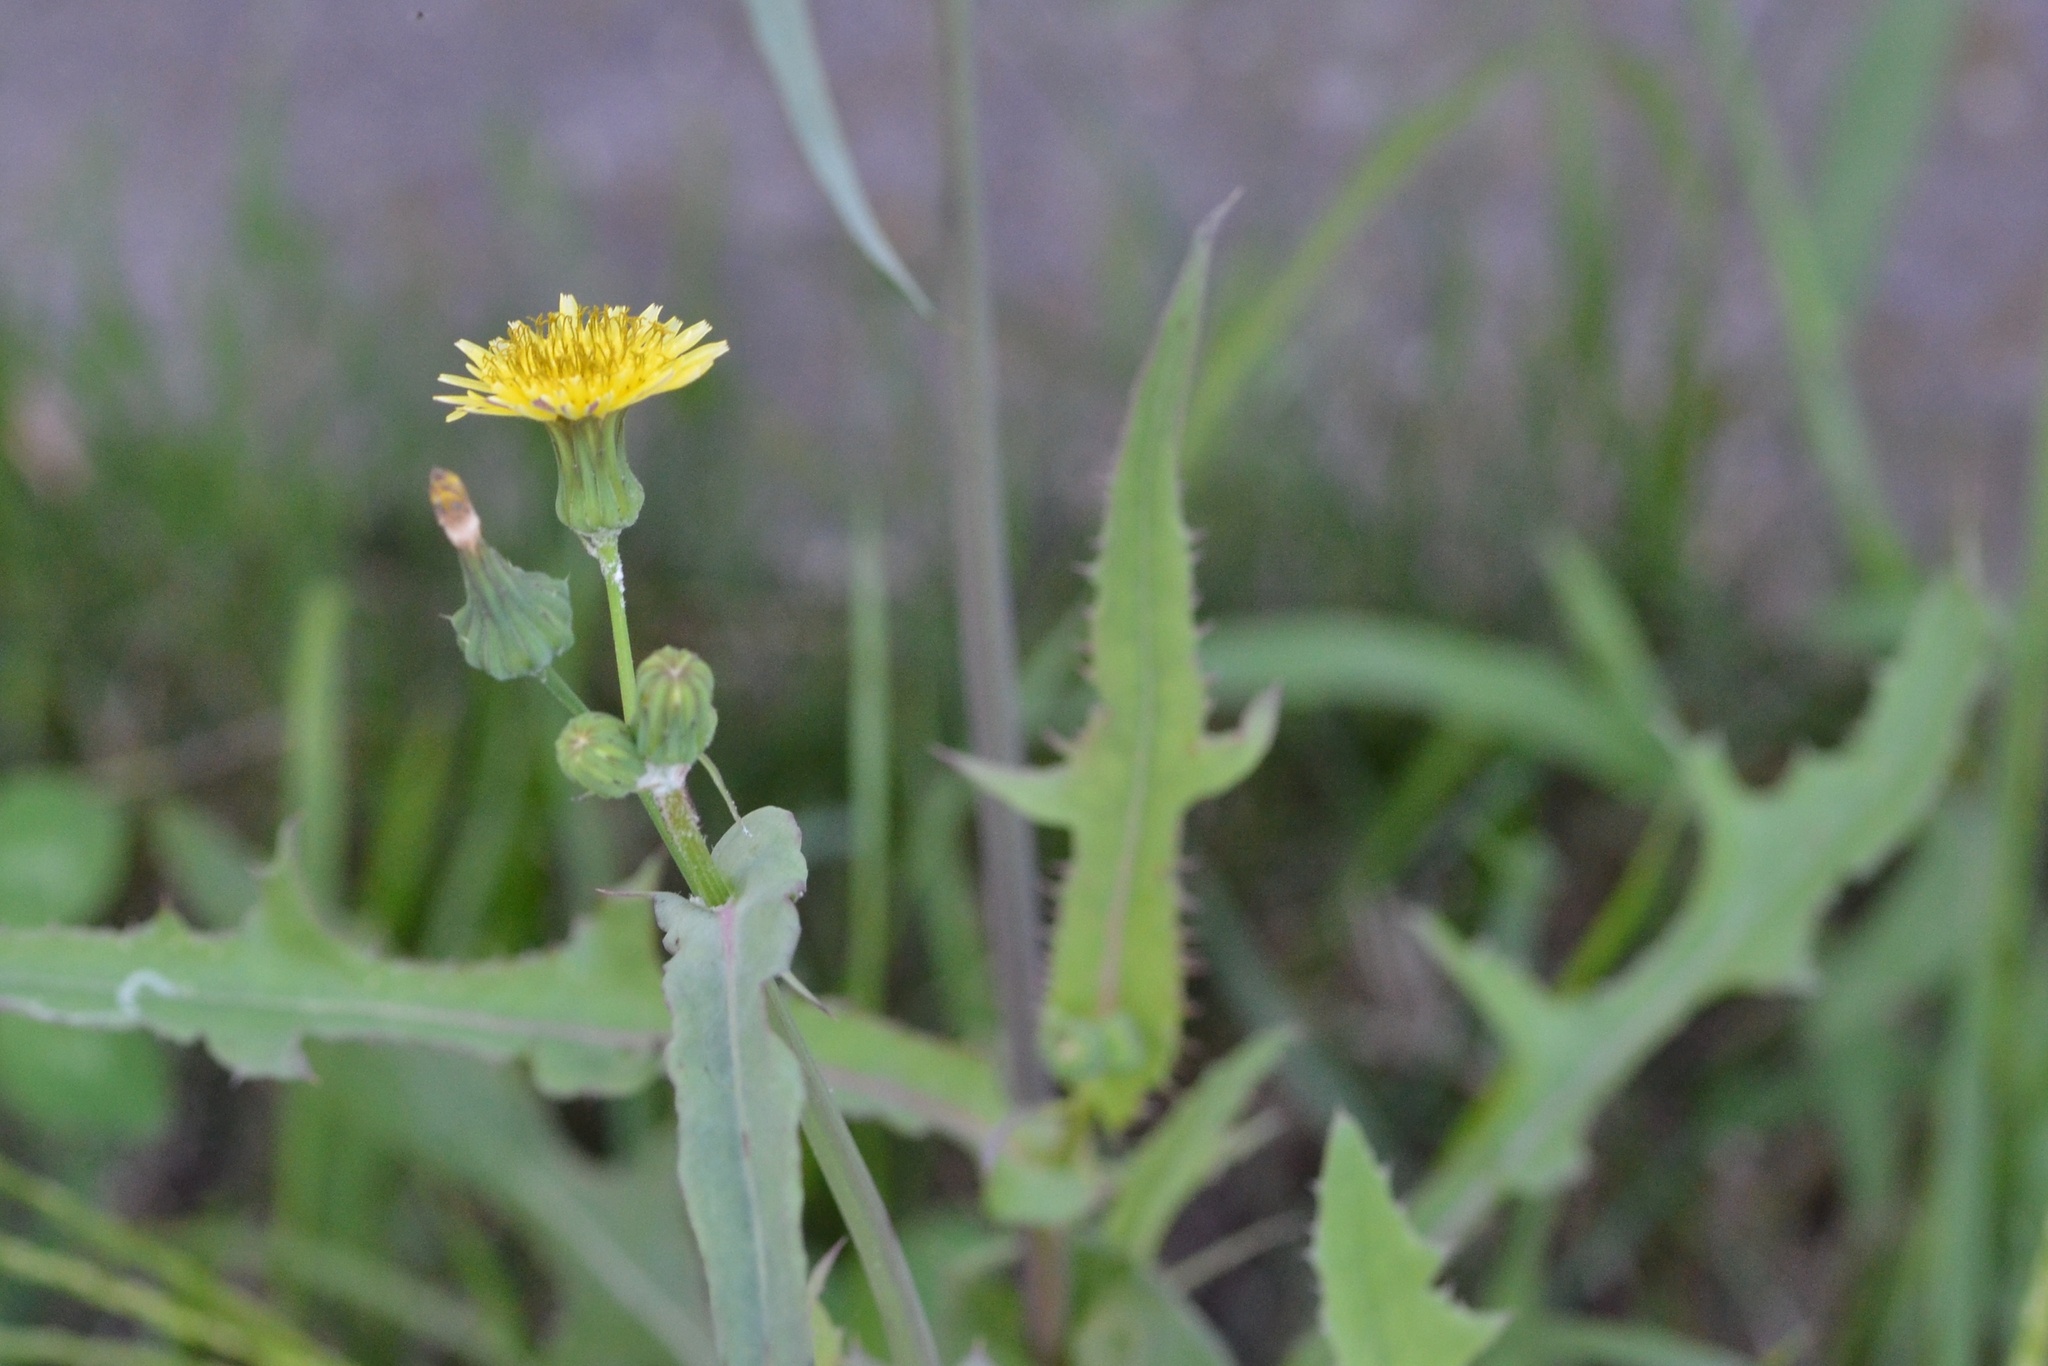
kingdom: Plantae
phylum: Tracheophyta
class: Magnoliopsida
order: Asterales
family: Asteraceae
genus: Sonchus
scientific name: Sonchus oleraceus
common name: Common sowthistle
